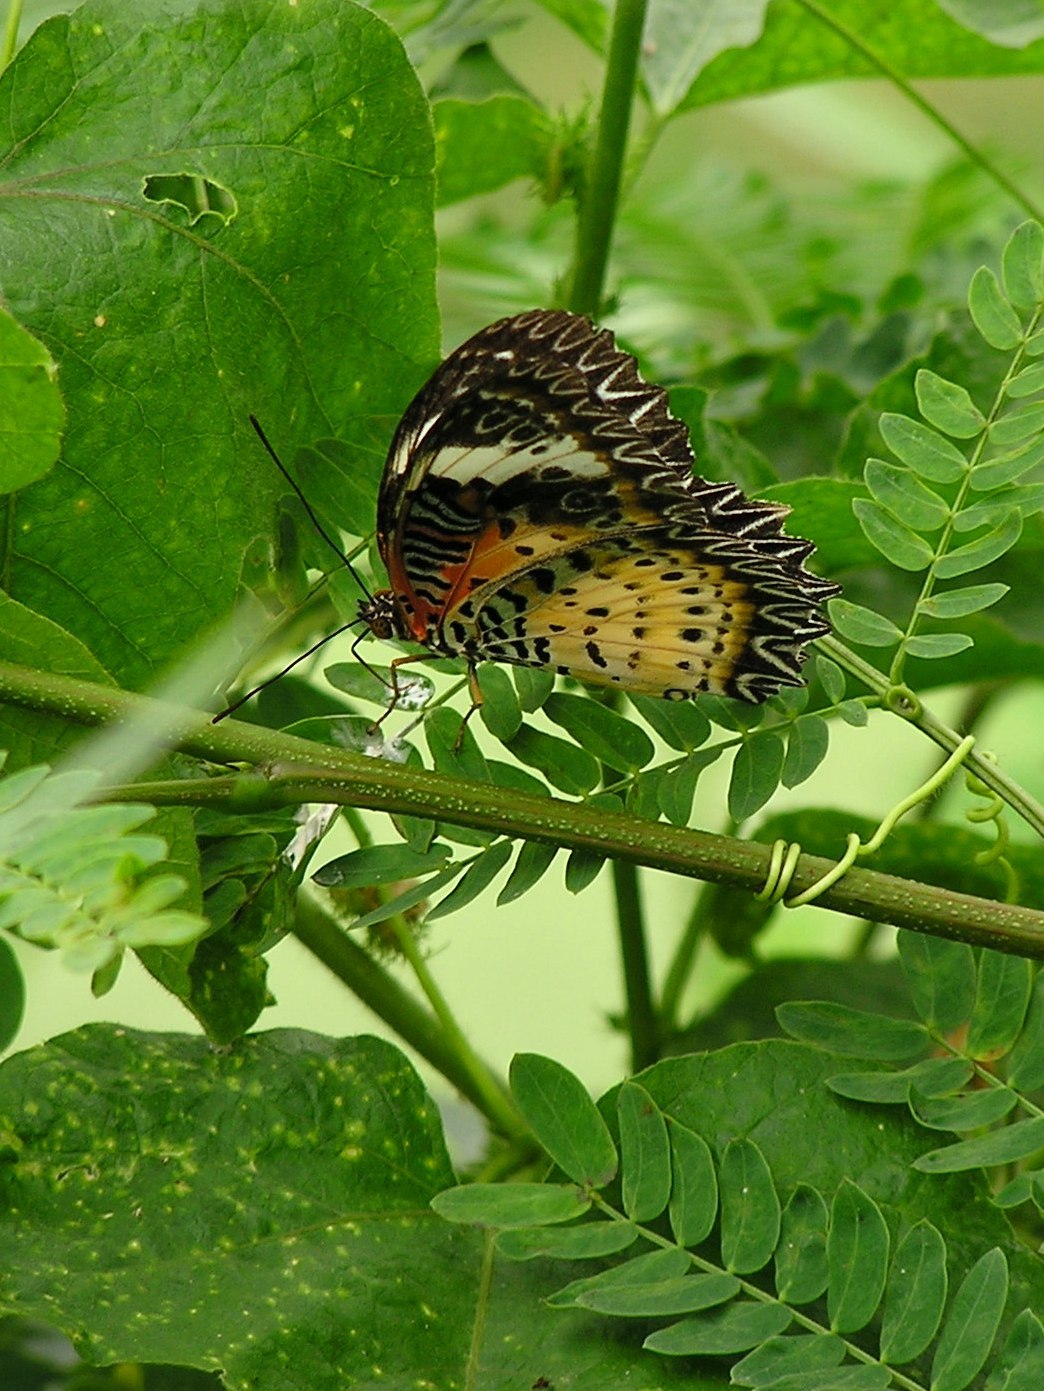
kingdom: Animalia
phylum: Arthropoda
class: Insecta
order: Lepidoptera
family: Nymphalidae
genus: Cethosia
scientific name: Cethosia cyane
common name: Leopard lacewing butterfly
